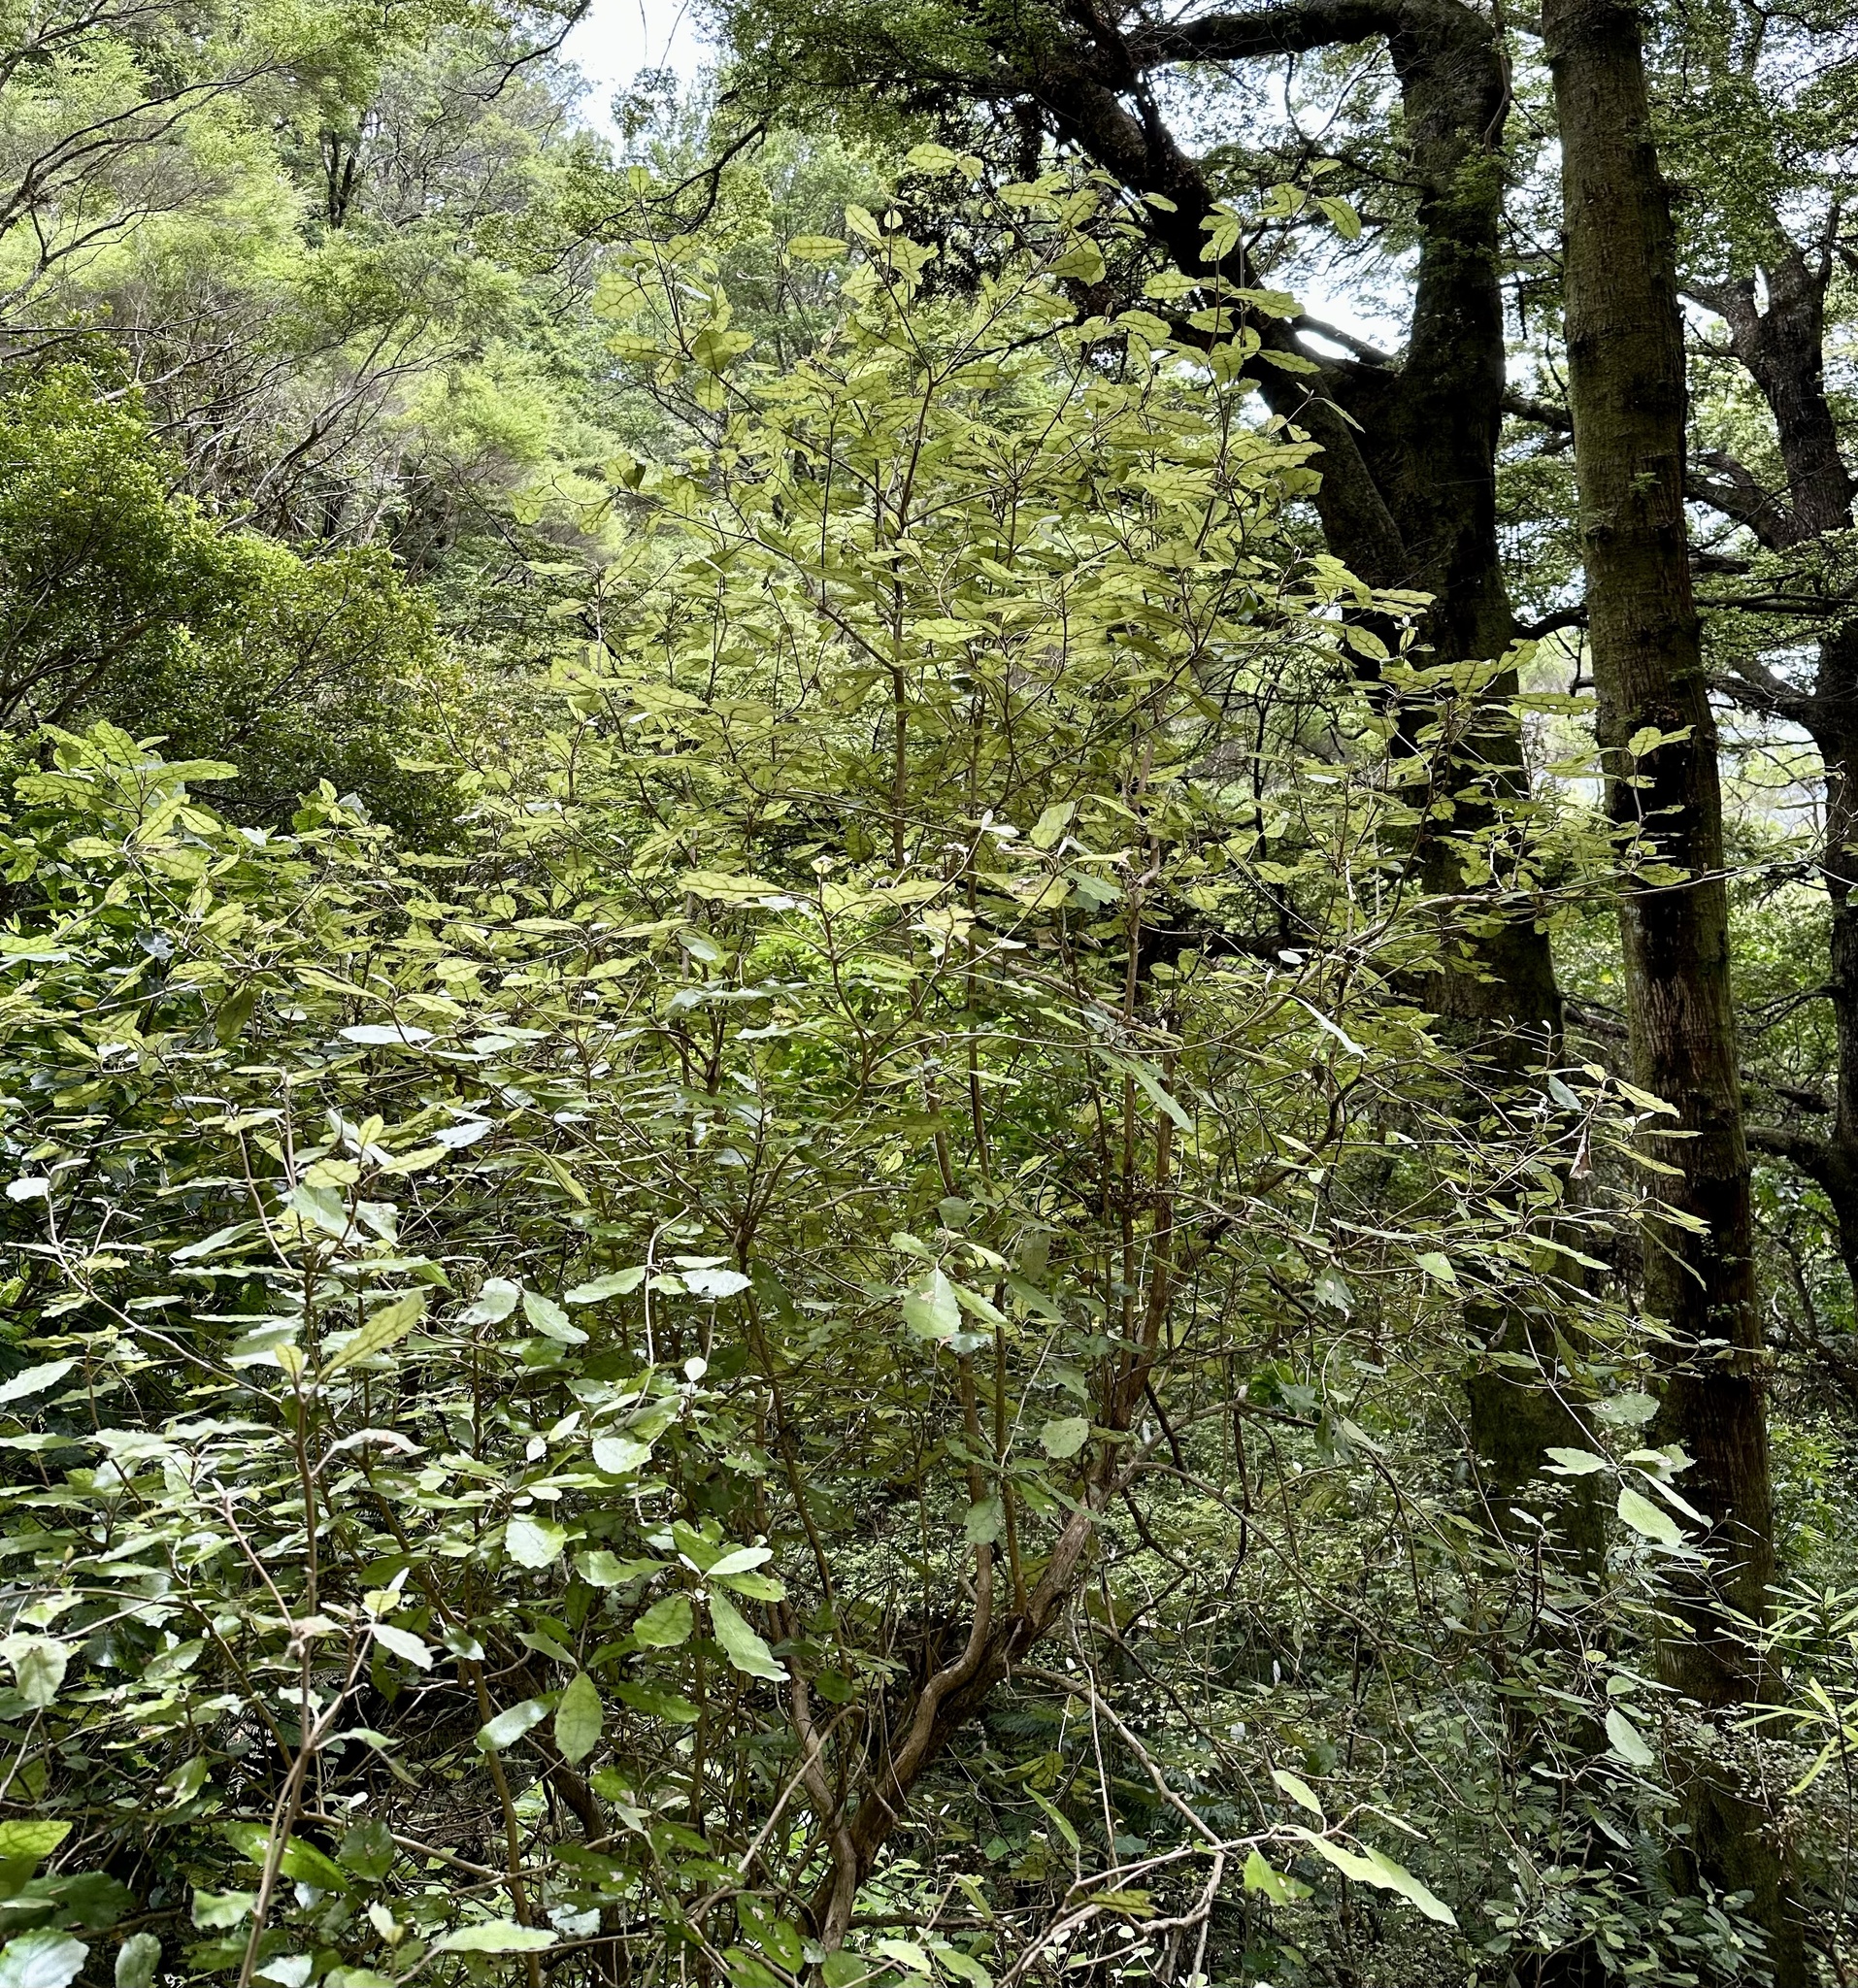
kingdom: Plantae
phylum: Tracheophyta
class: Magnoliopsida
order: Asterales
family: Asteraceae
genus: Olearia
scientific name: Olearia rani
